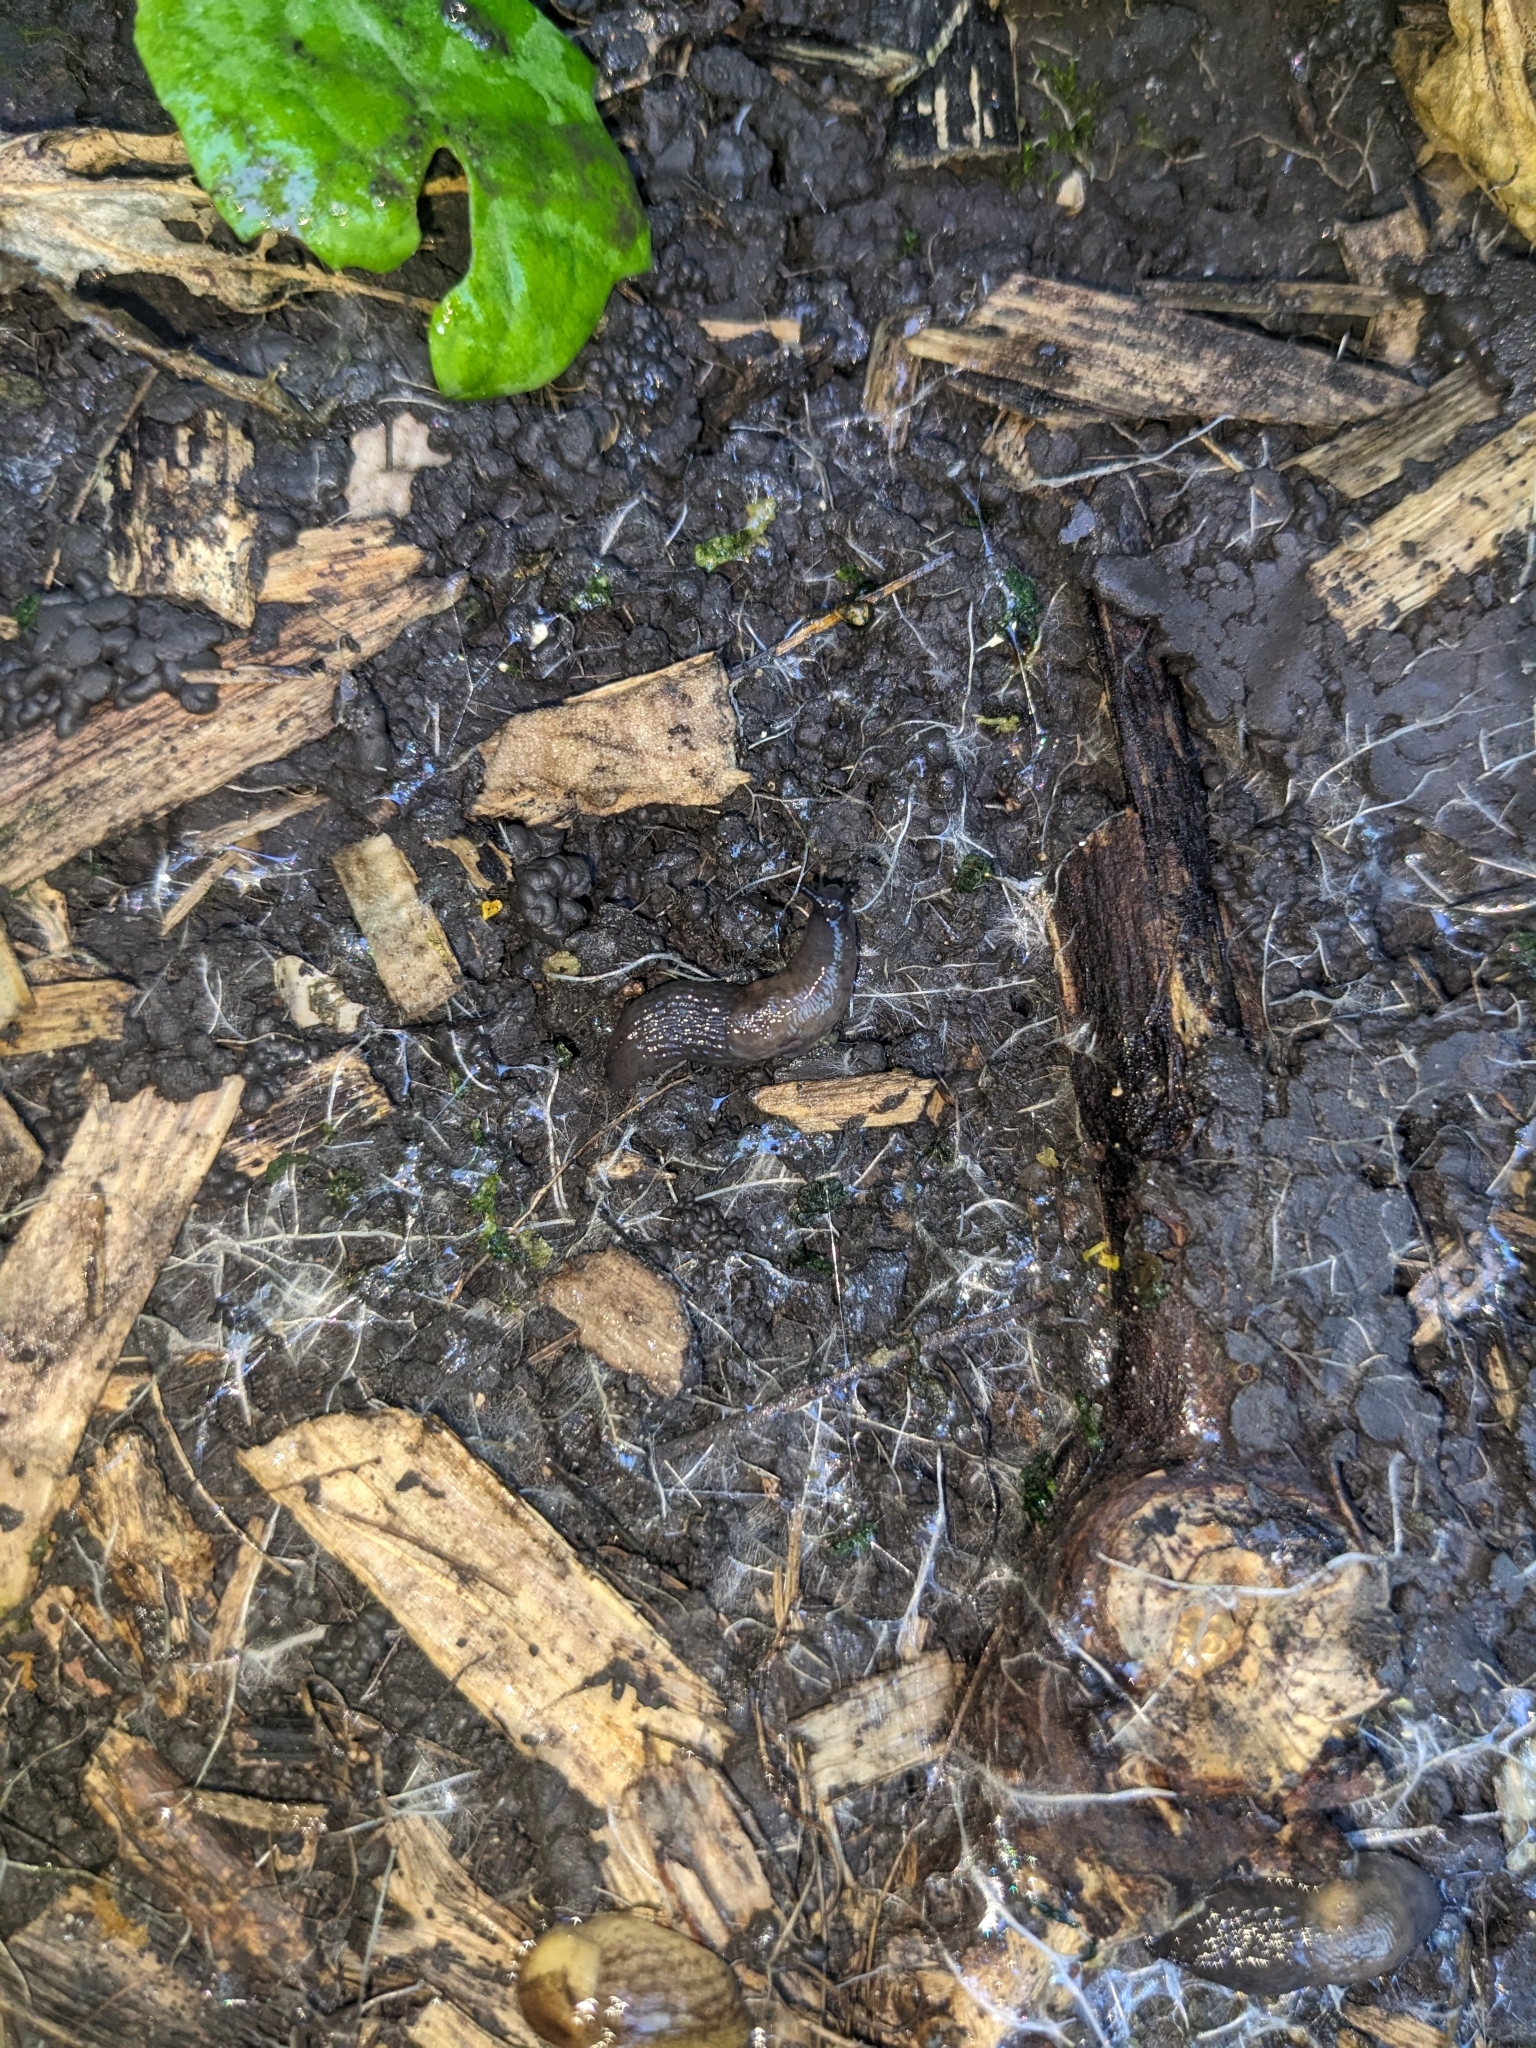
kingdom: Animalia
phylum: Mollusca
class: Gastropoda
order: Stylommatophora
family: Agriolimacidae
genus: Deroceras
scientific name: Deroceras invadens
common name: Caruana's slug
